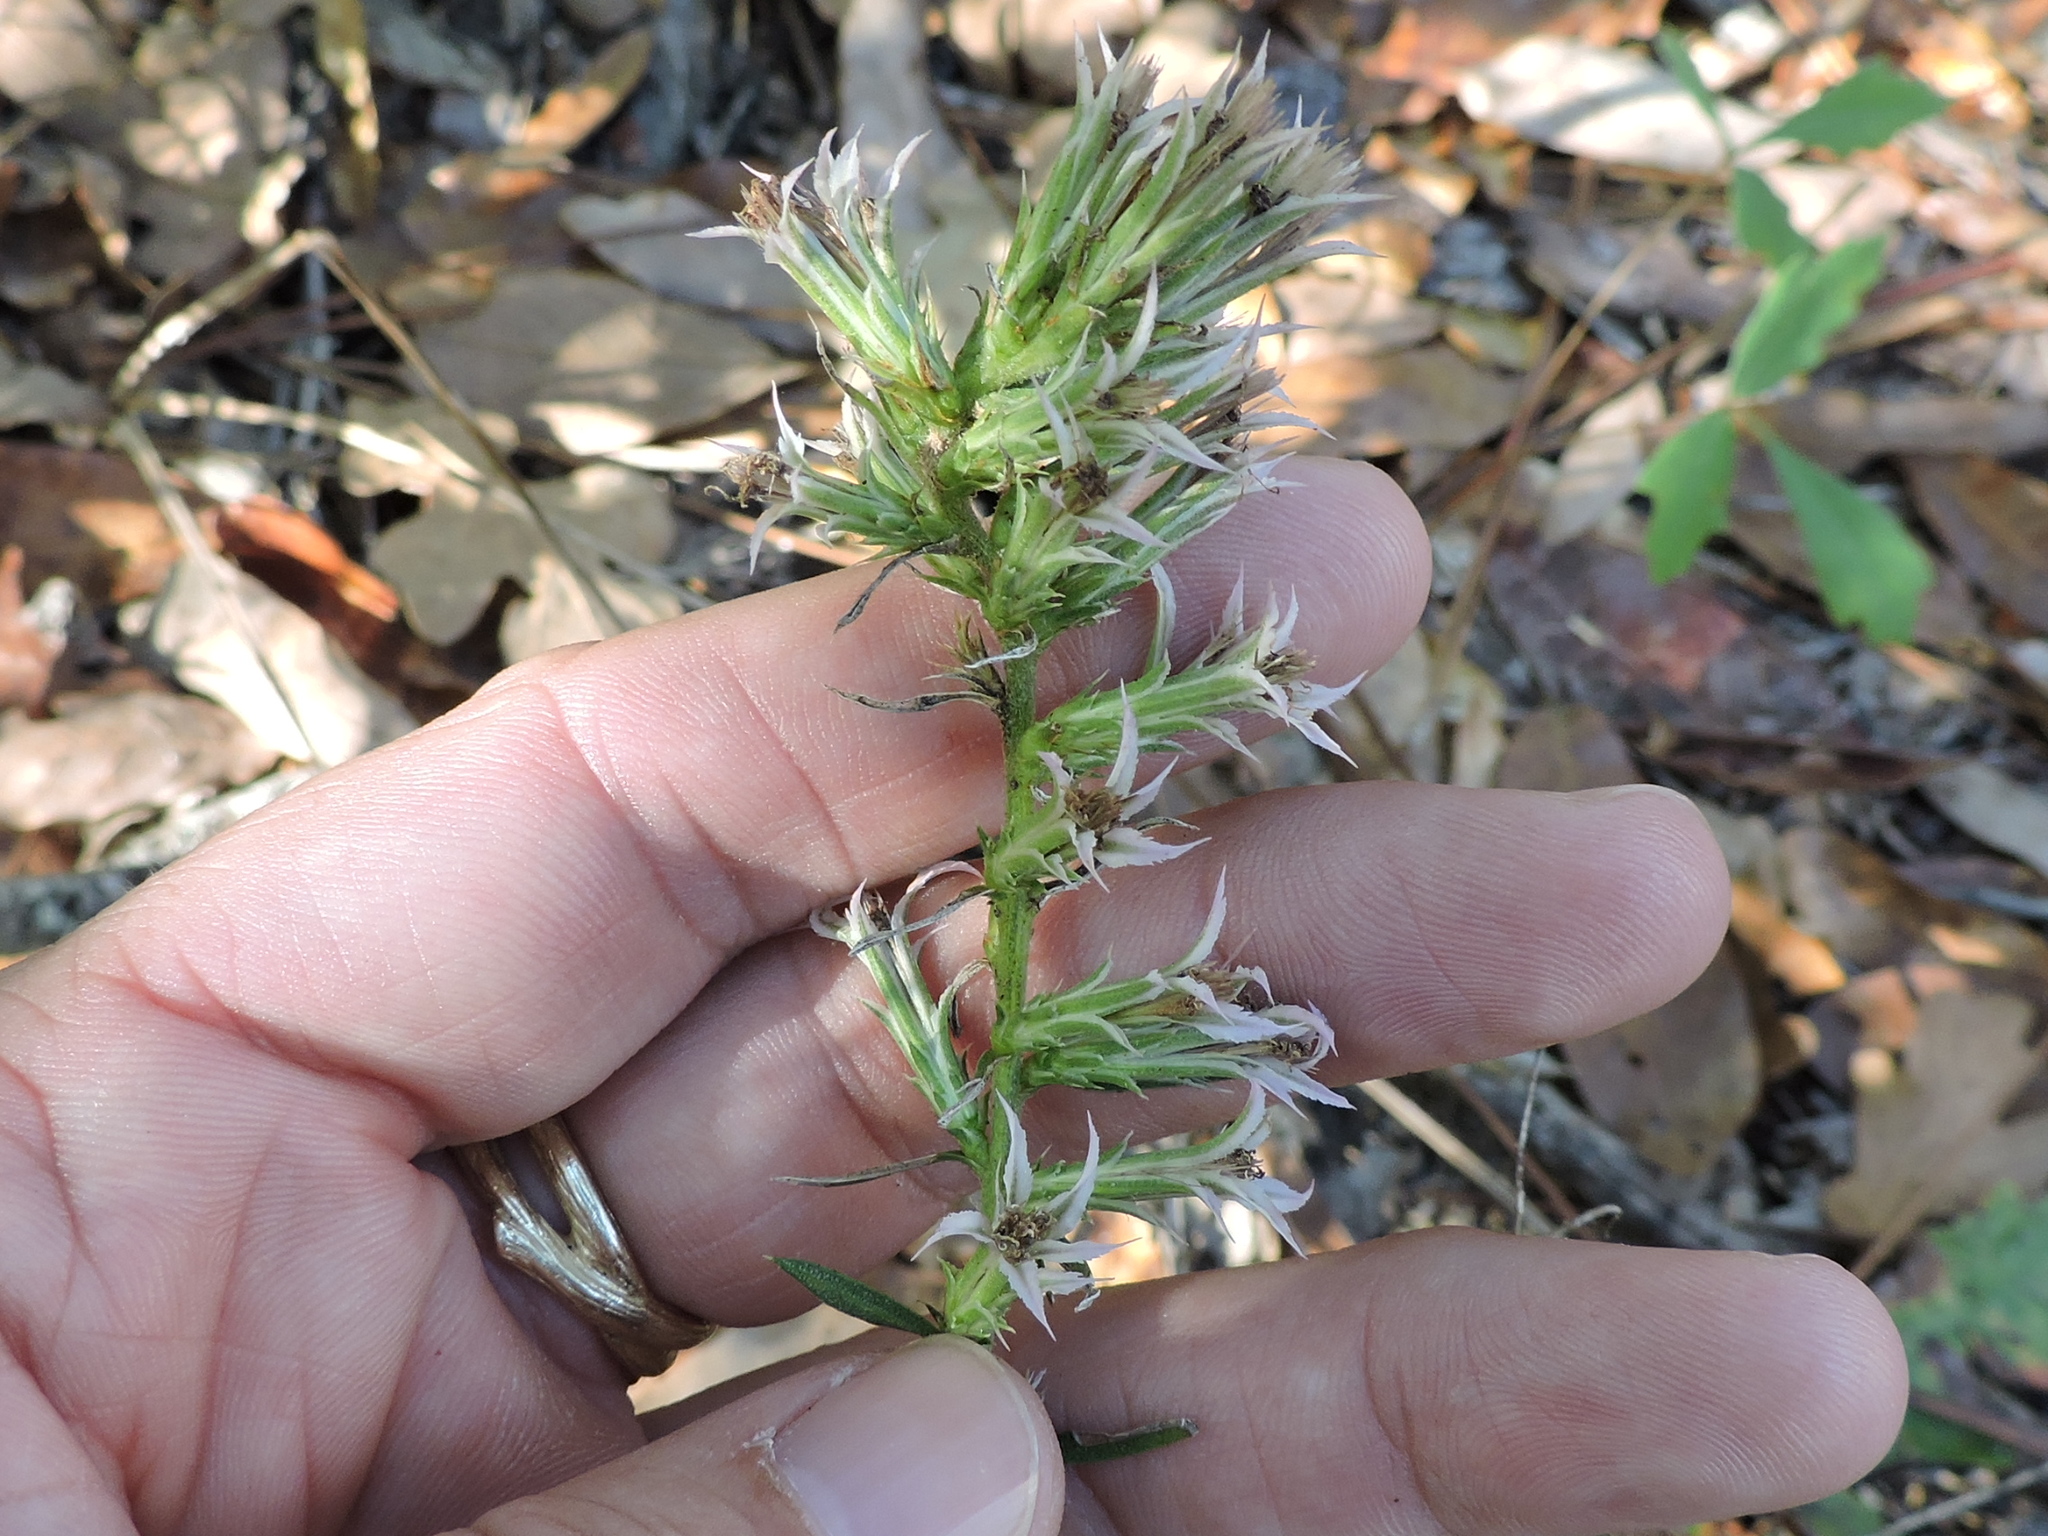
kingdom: Plantae
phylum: Tracheophyta
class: Magnoliopsida
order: Asterales
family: Asteraceae
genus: Liatris
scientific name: Liatris hesperelegans
